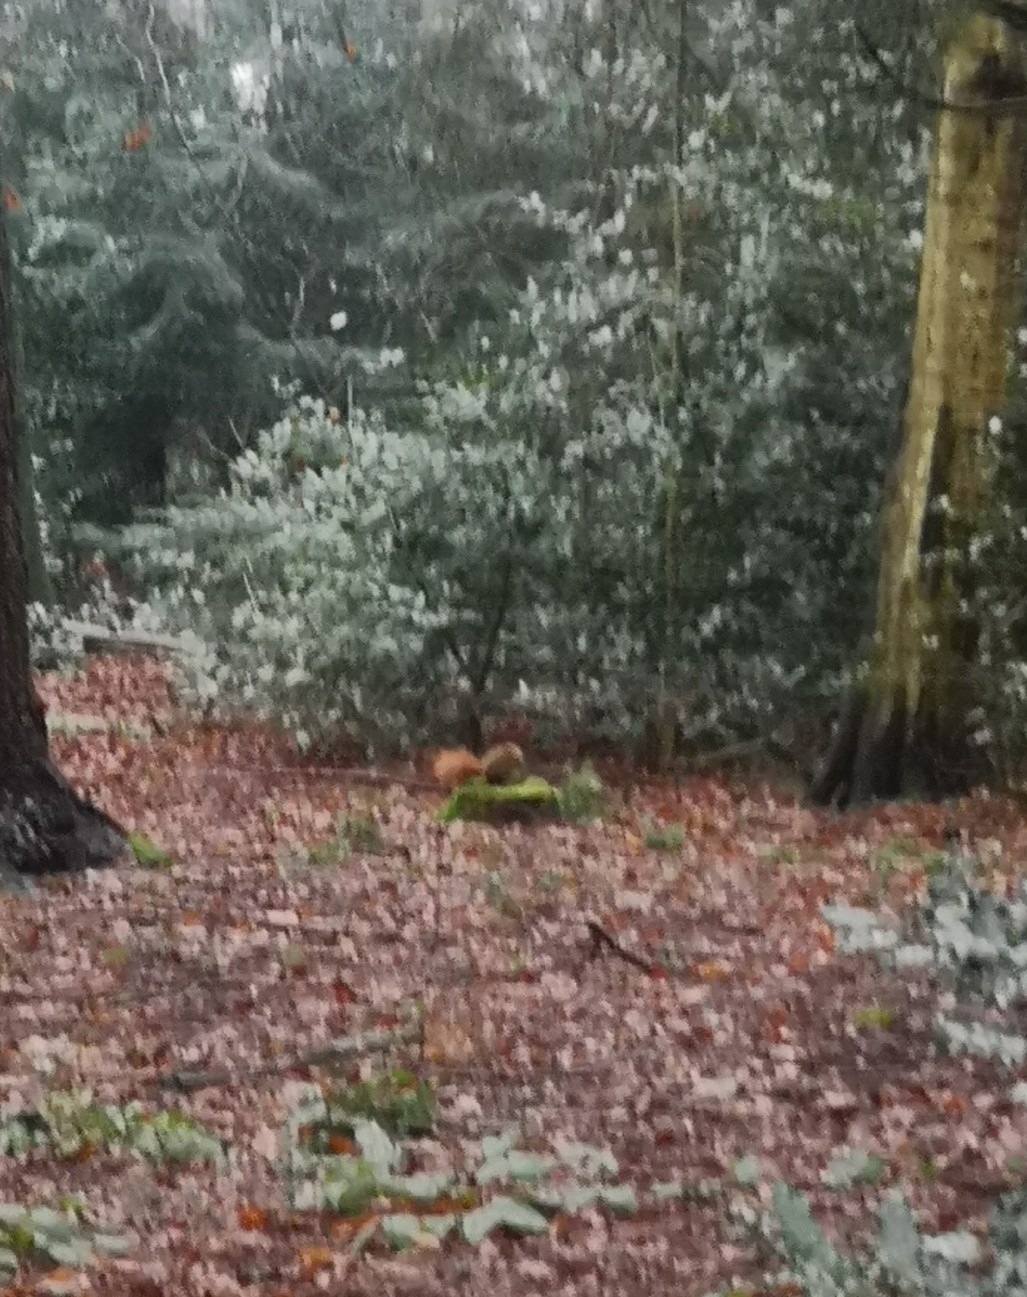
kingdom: Animalia
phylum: Chordata
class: Mammalia
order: Rodentia
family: Sciuridae
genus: Sciurus
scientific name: Sciurus vulgaris
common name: Eurasian red squirrel
